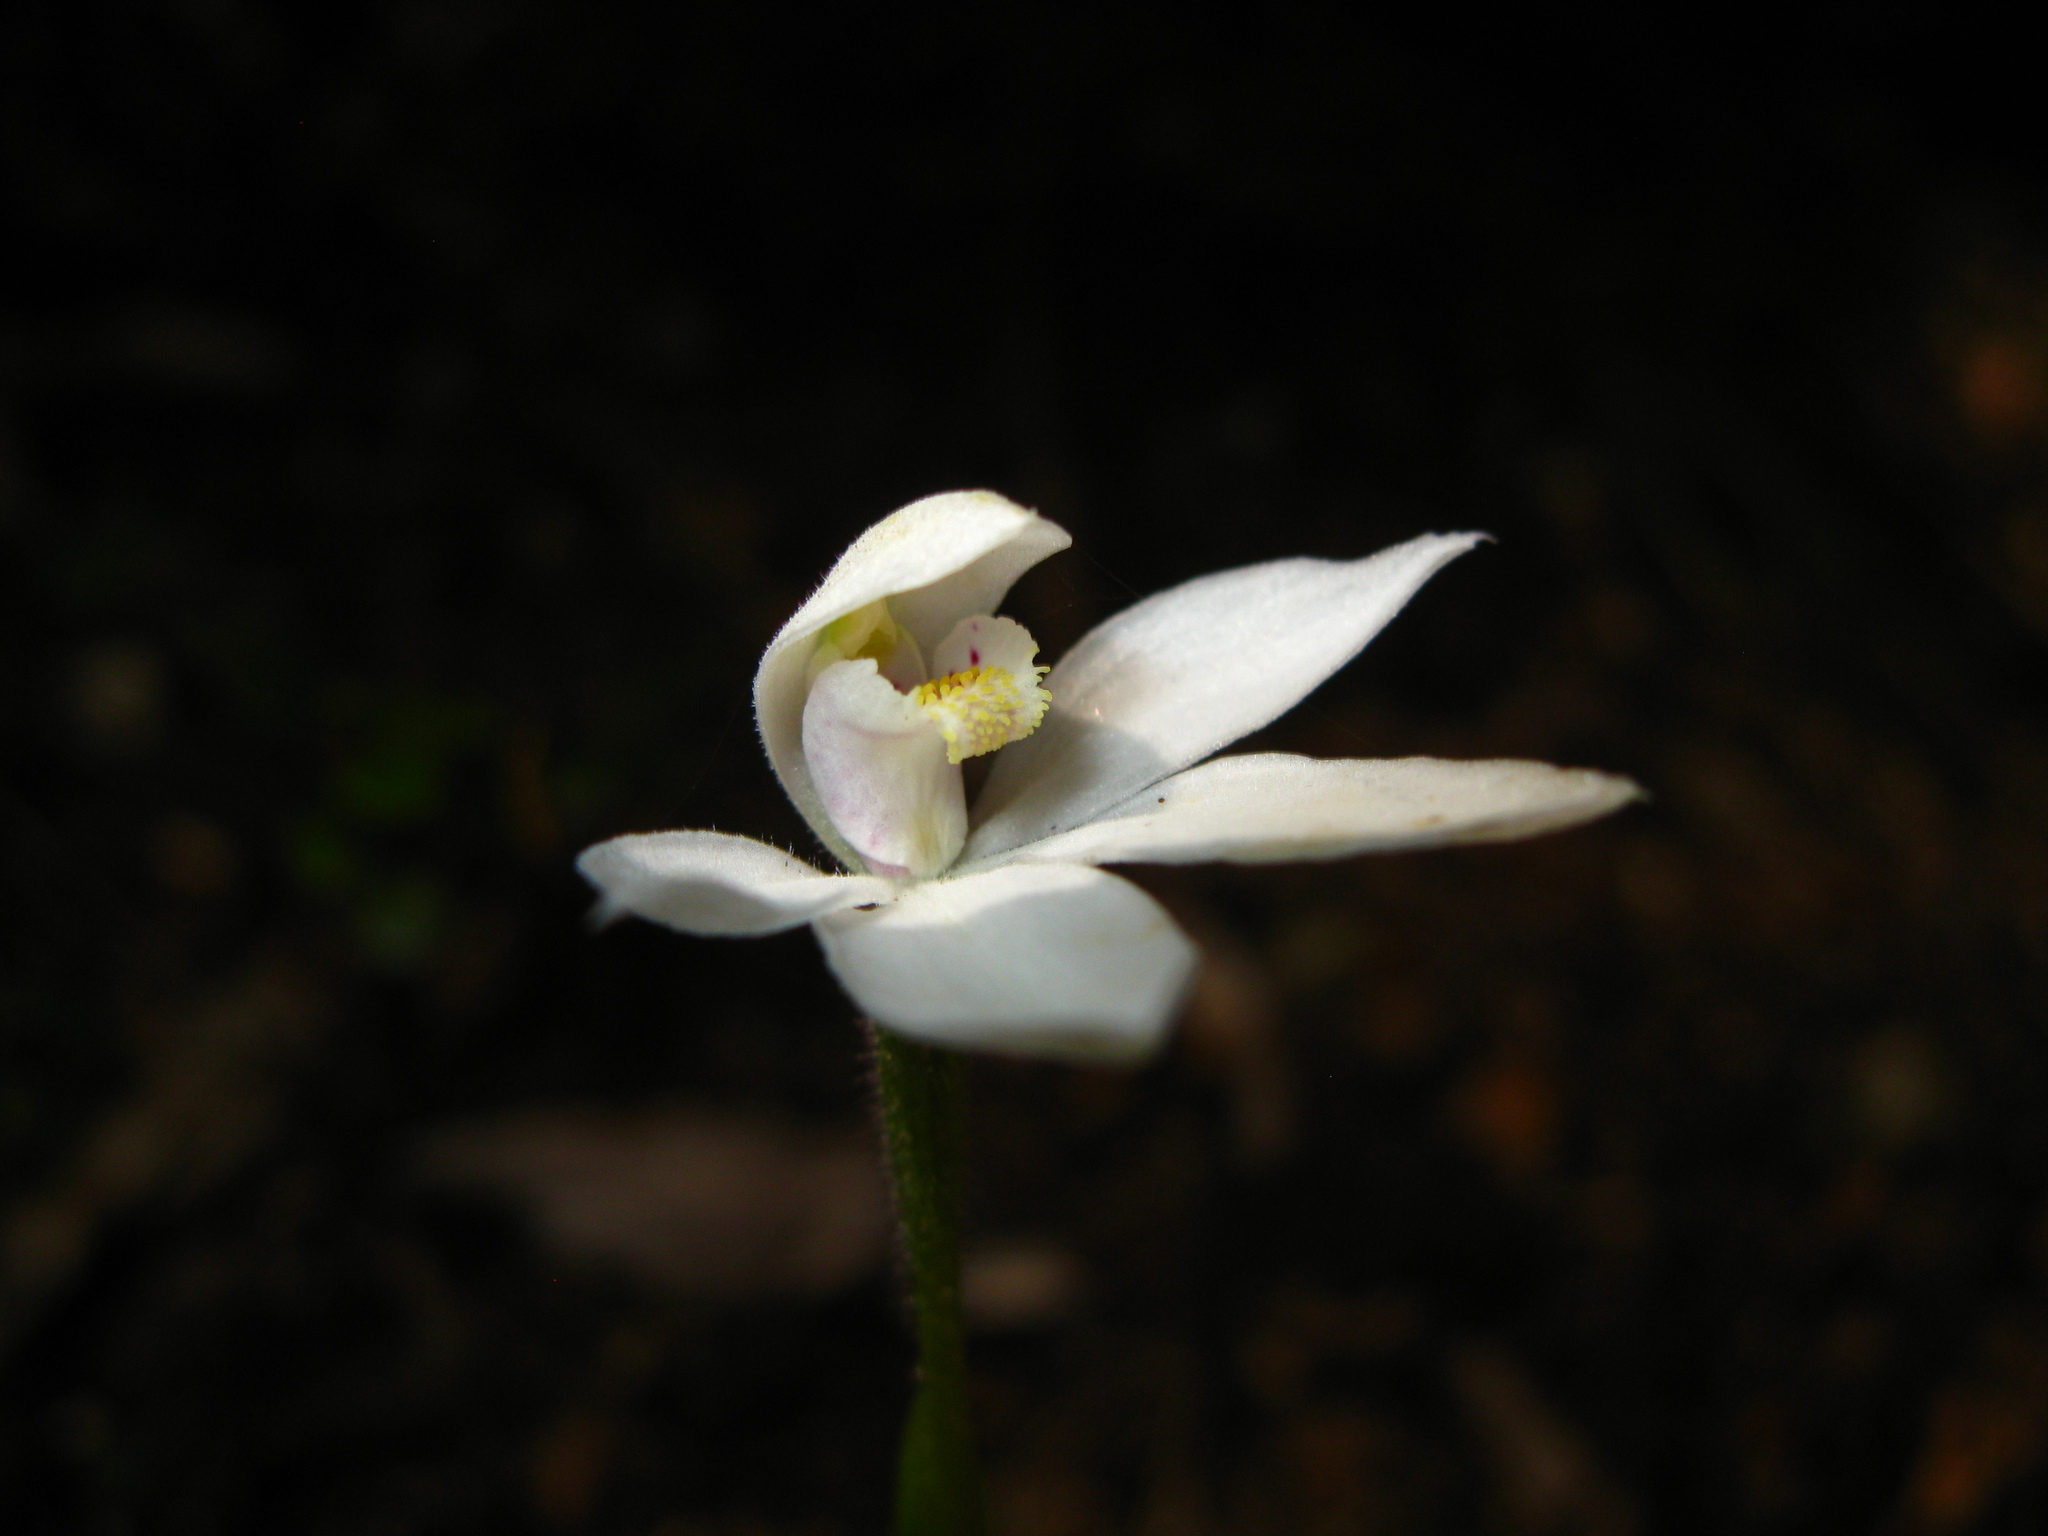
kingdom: Plantae
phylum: Tracheophyta
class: Liliopsida
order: Asparagales
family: Orchidaceae
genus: Caladenia
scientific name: Caladenia lyallii
